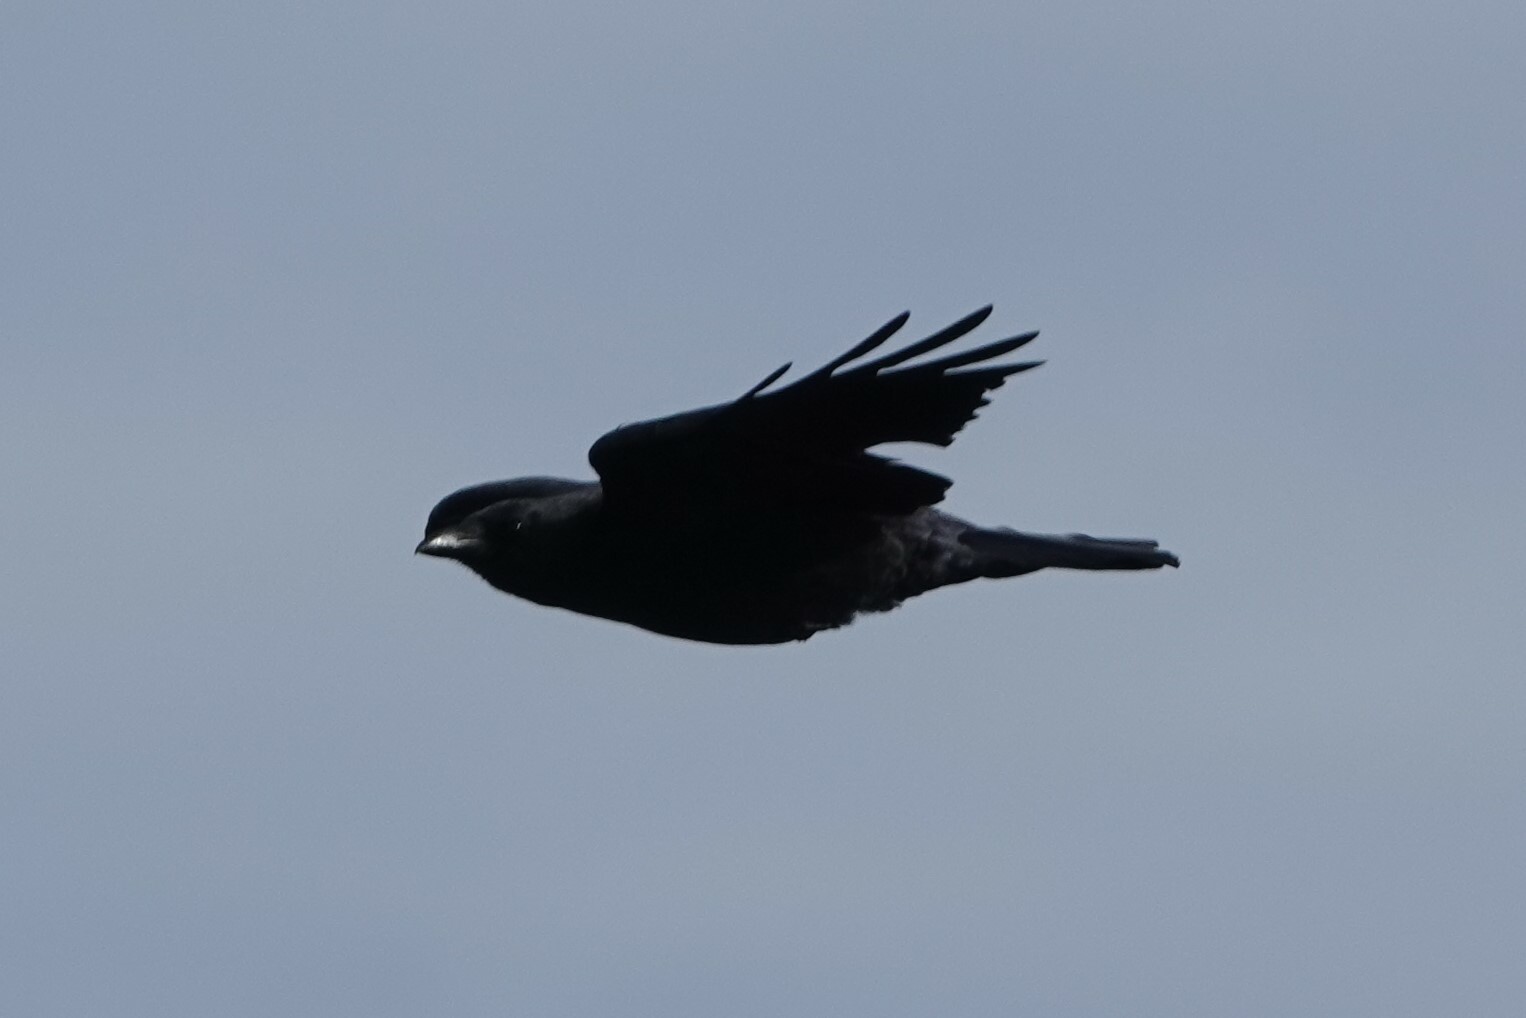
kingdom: Animalia
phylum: Chordata
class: Aves
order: Passeriformes
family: Corvidae
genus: Corvus
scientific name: Corvus brachyrhynchos
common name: American crow
